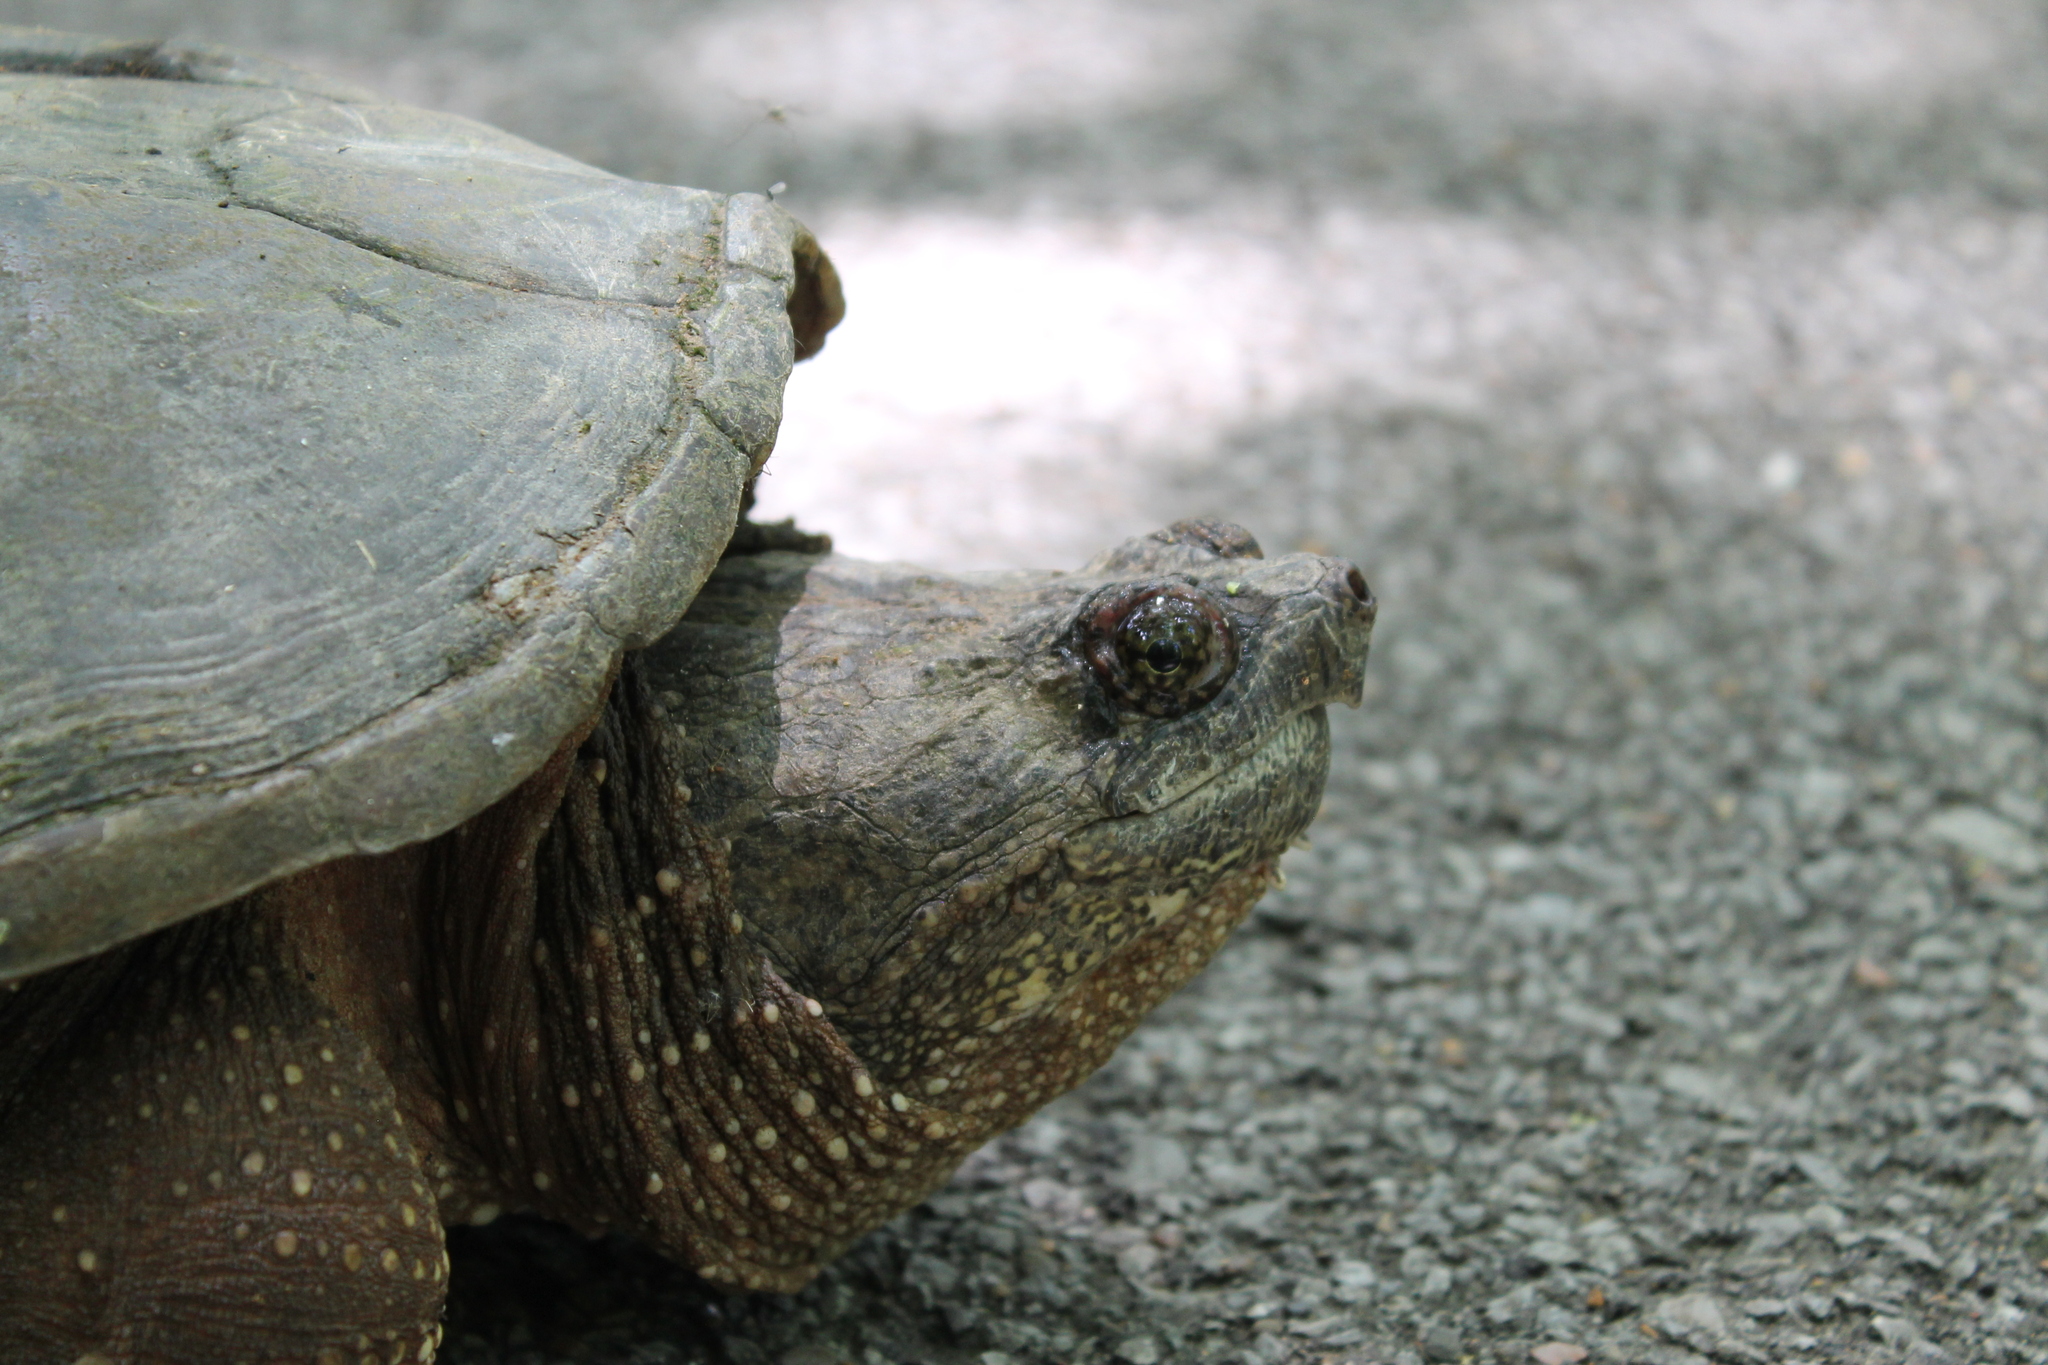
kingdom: Animalia
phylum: Chordata
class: Testudines
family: Chelydridae
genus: Chelydra
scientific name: Chelydra serpentina
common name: Common snapping turtle
